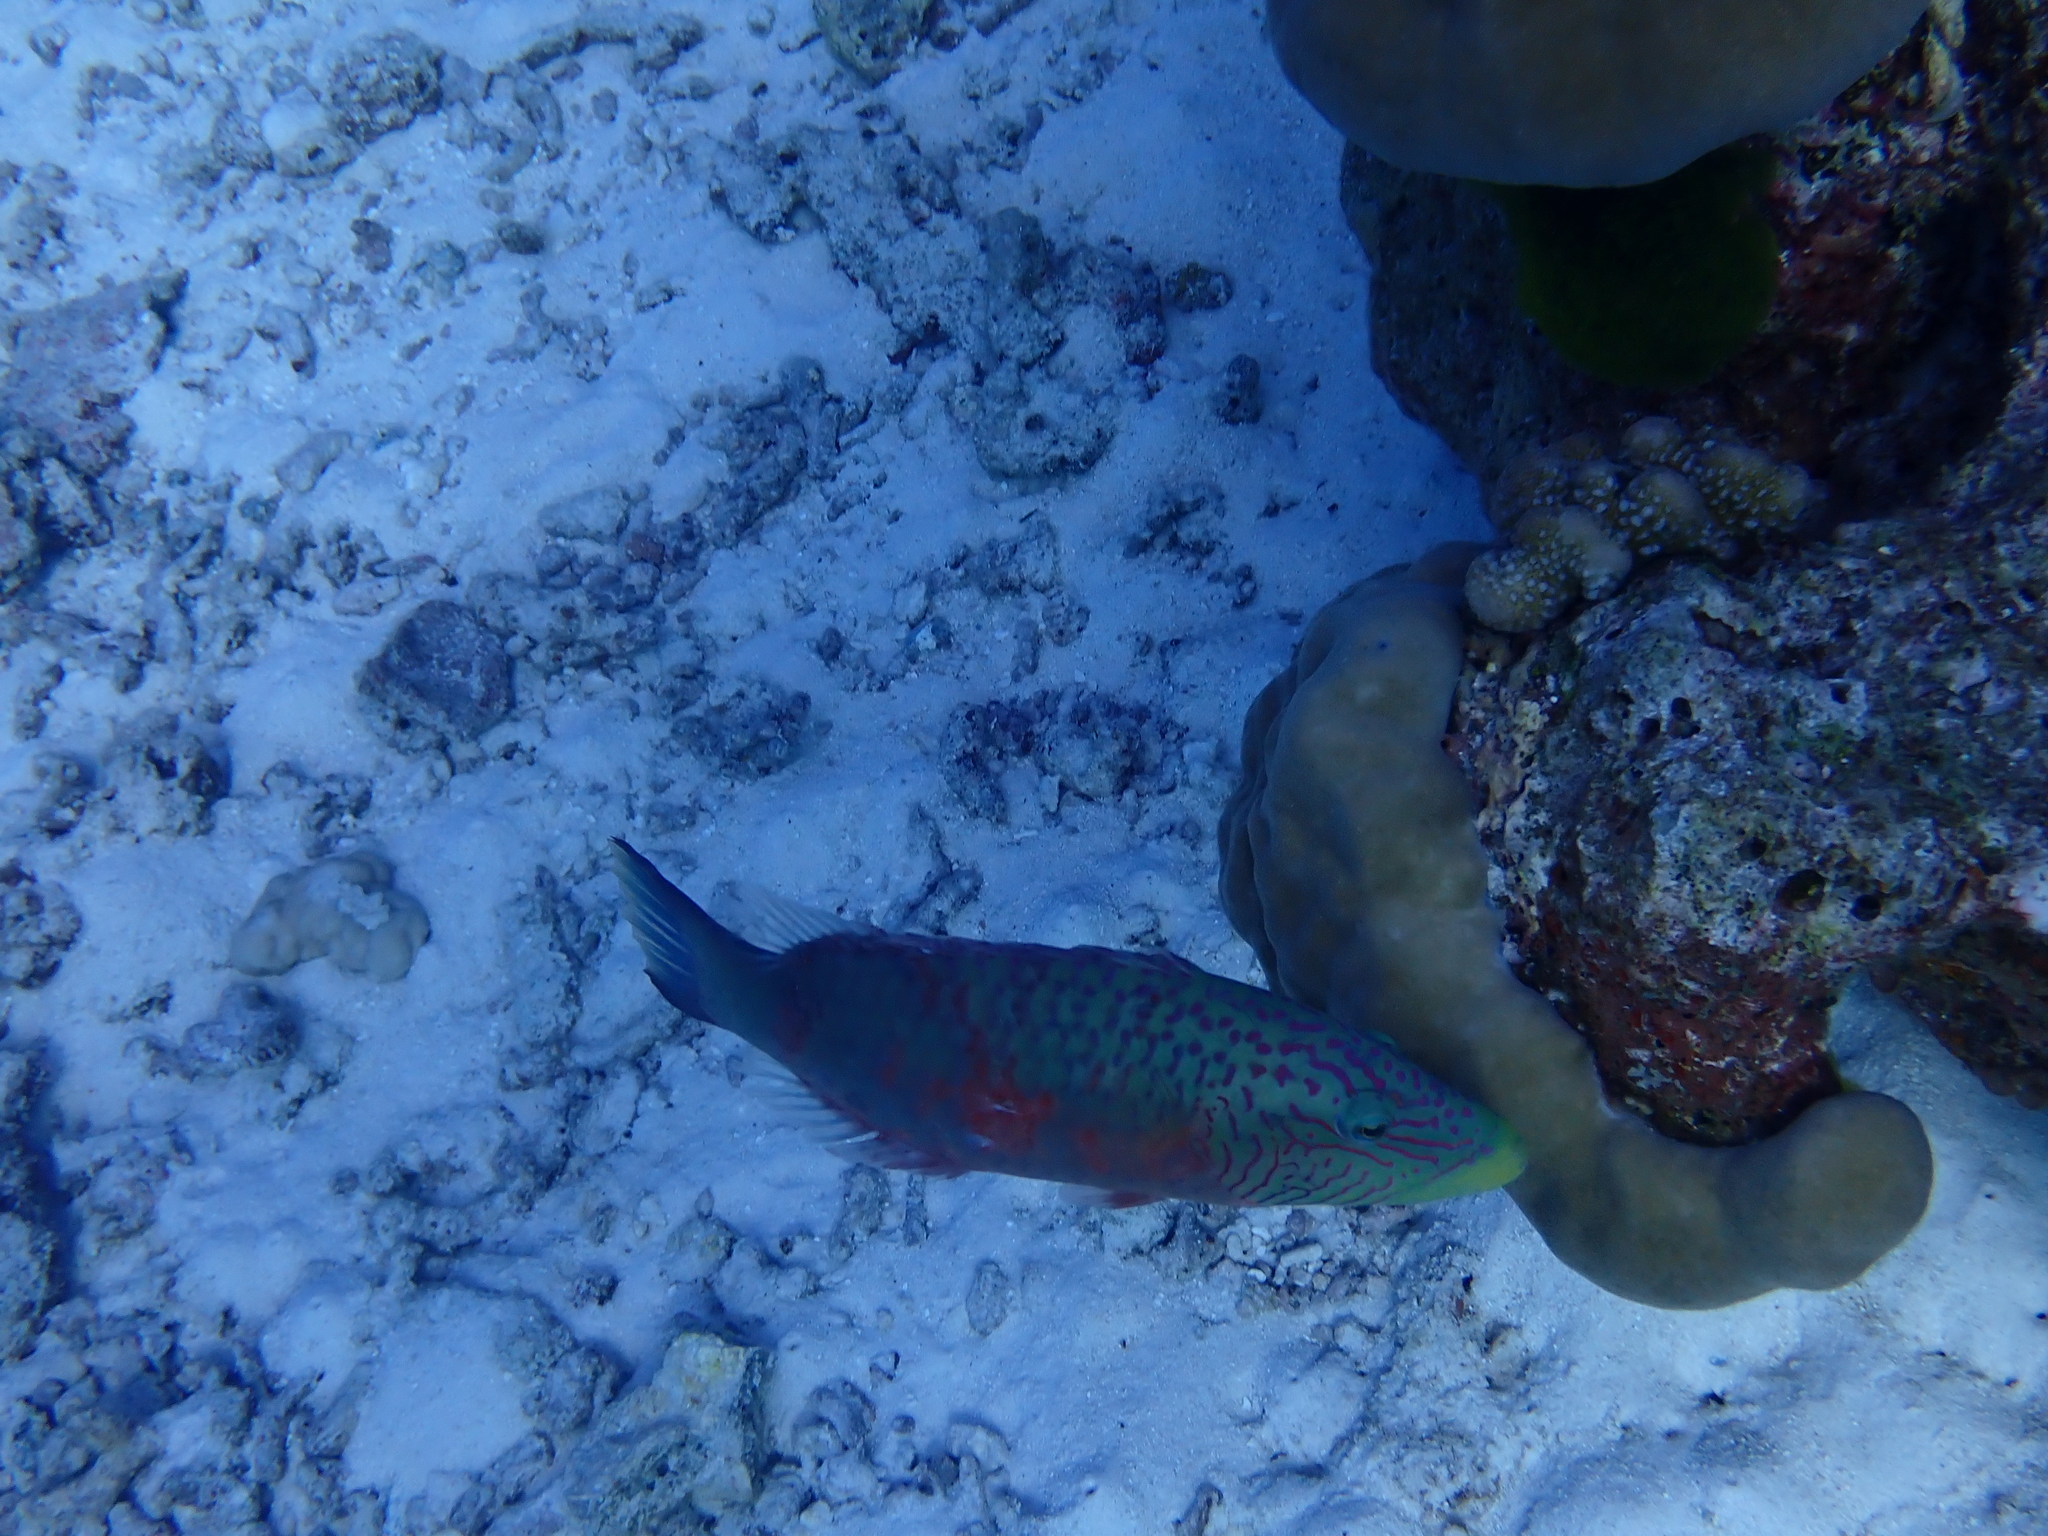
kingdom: Animalia
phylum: Chordata
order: Perciformes
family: Labridae
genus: Oxycheilinus
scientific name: Oxycheilinus digramma
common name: Bandcheek wrasse
